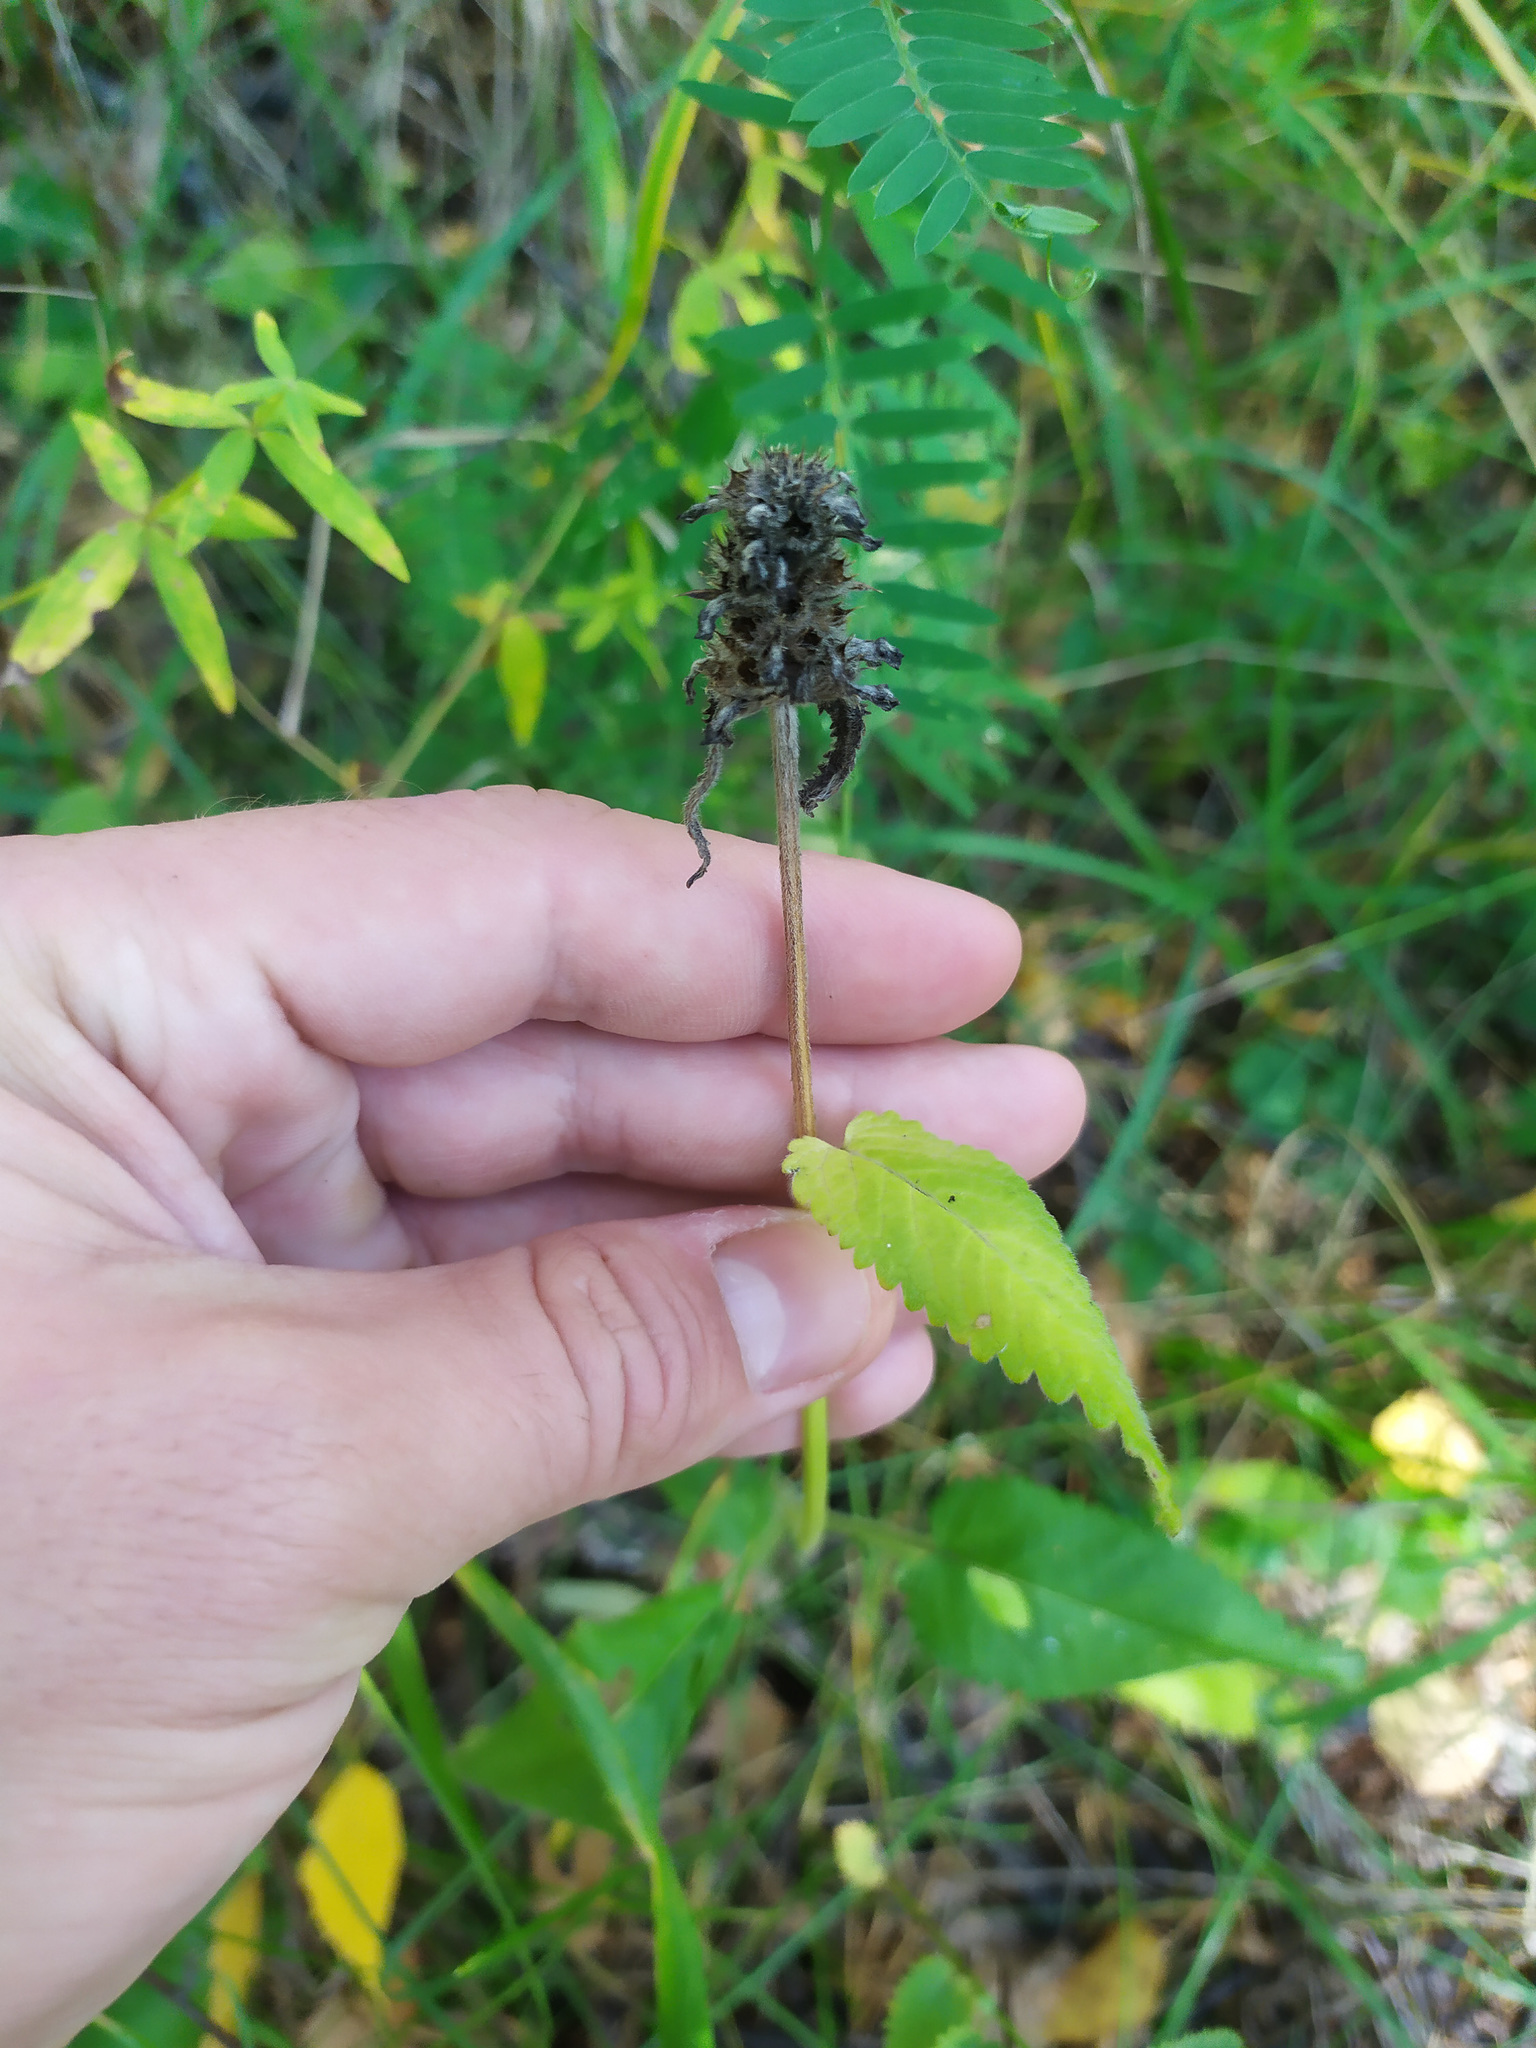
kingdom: Plantae
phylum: Tracheophyta
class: Magnoliopsida
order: Lamiales
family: Lamiaceae
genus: Betonica
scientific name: Betonica officinalis
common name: Bishop's-wort
